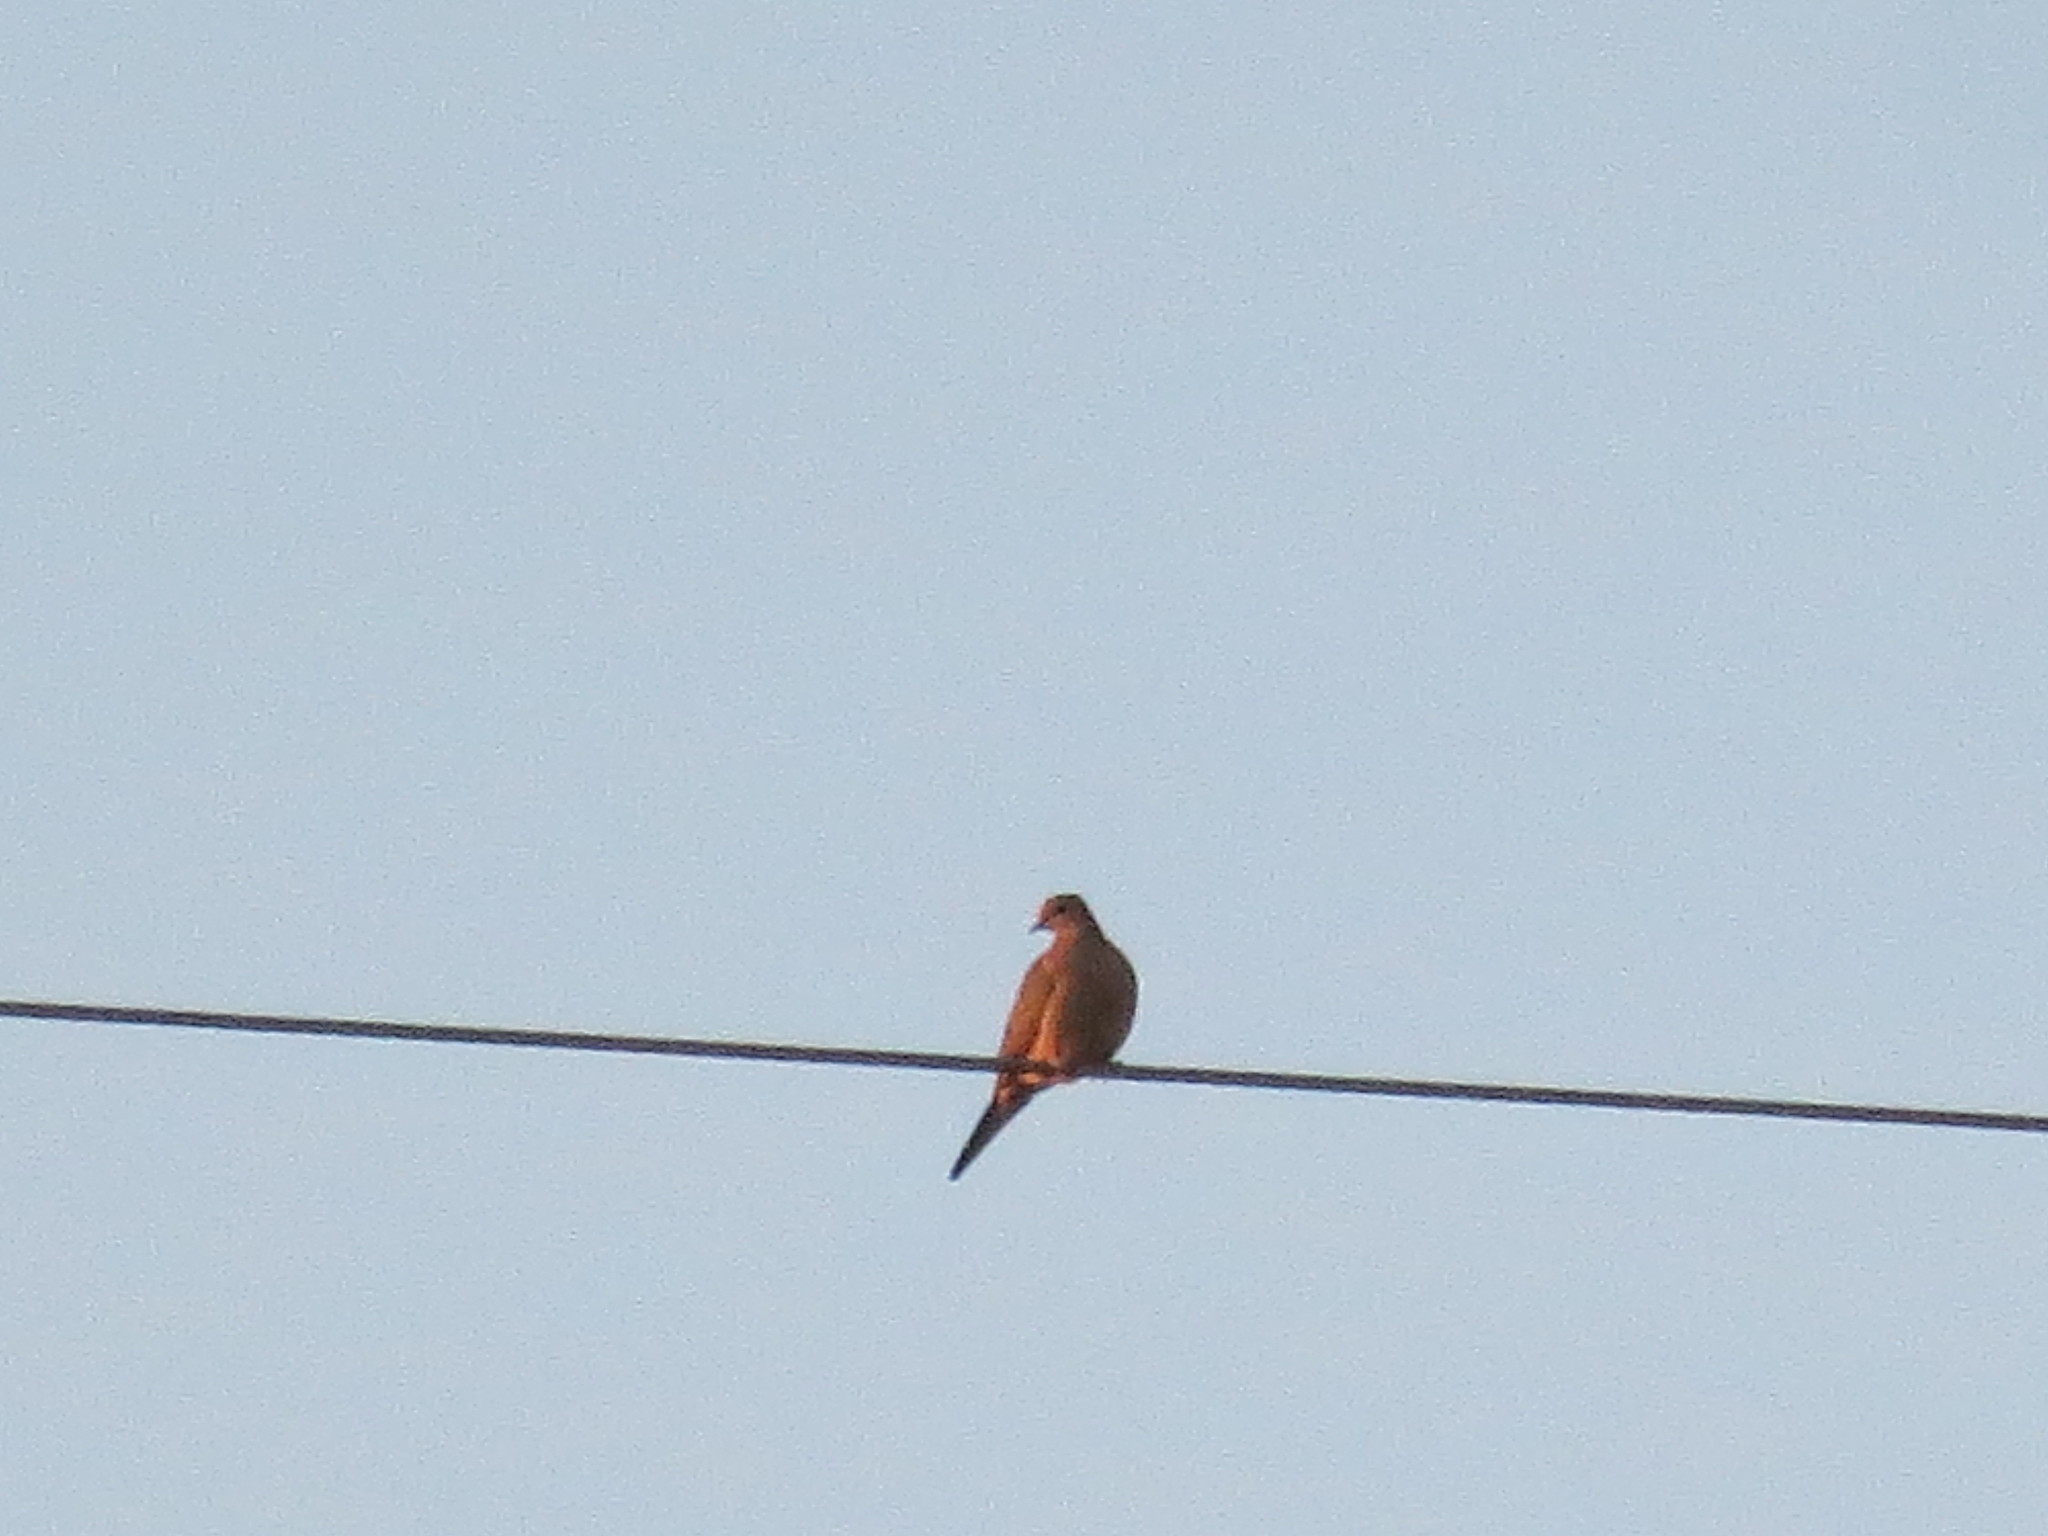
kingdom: Animalia
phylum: Chordata
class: Aves
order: Columbiformes
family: Columbidae
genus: Zenaida
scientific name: Zenaida macroura
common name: Mourning dove
